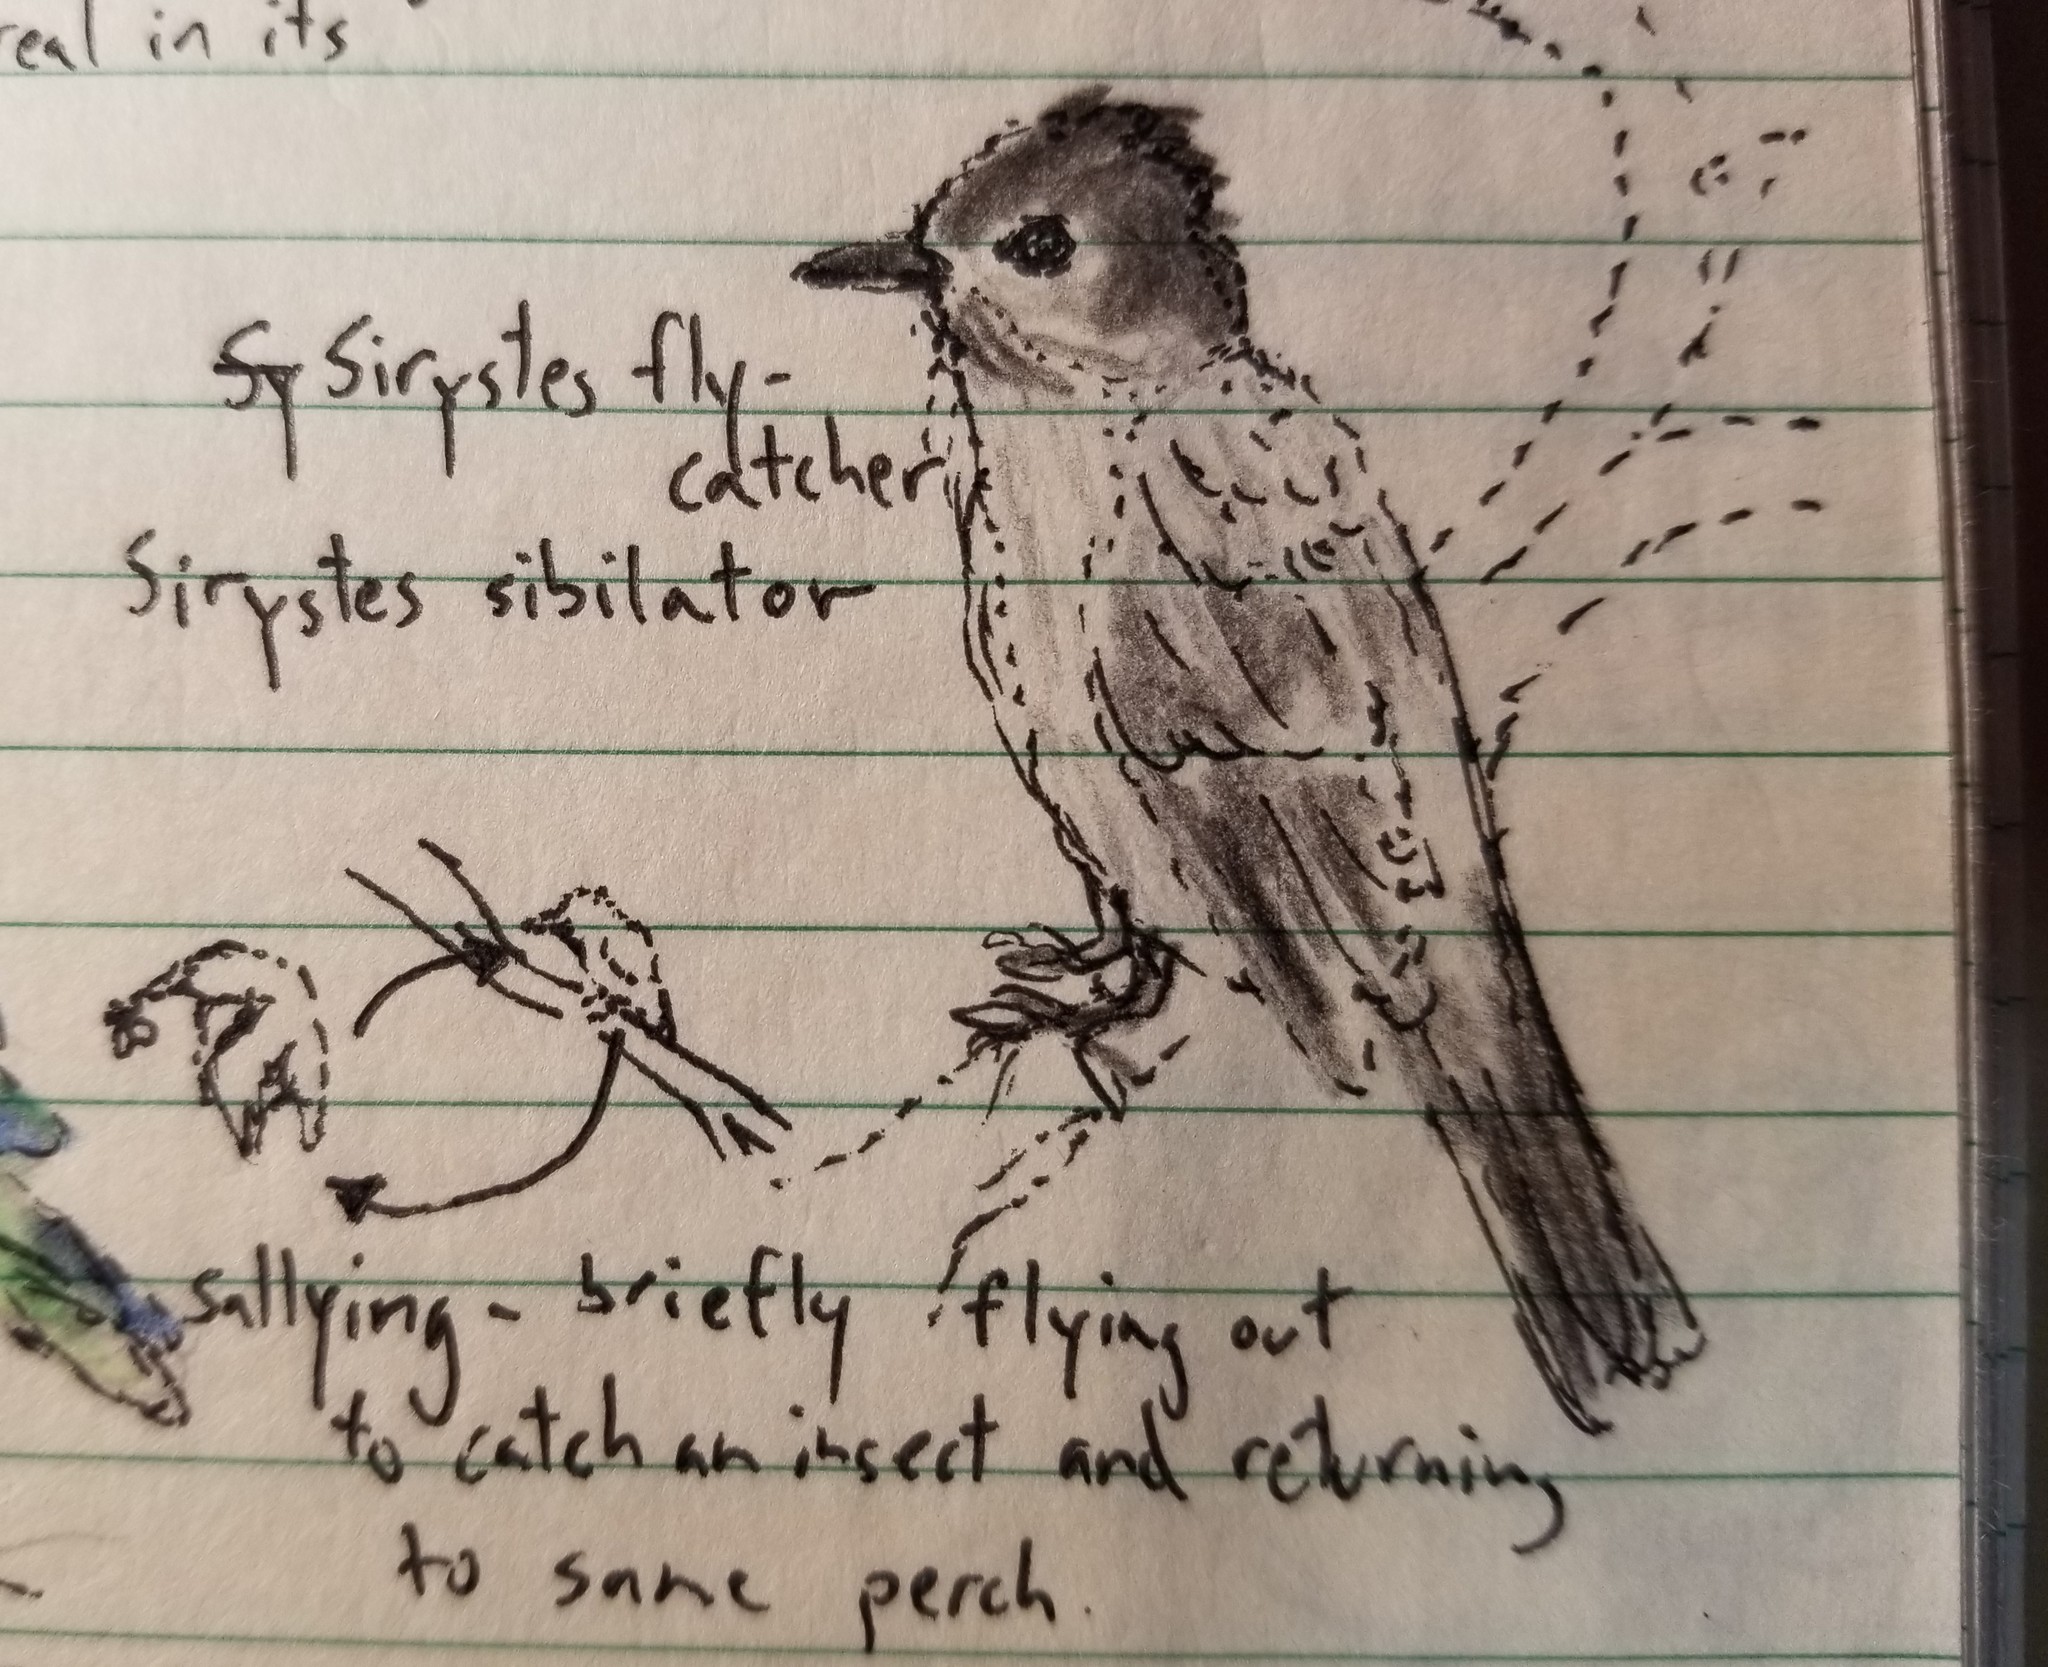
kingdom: Animalia
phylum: Chordata
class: Aves
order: Passeriformes
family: Tyrannidae
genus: Sirystes
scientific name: Sirystes albocinereus
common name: White-rumped sirystes
